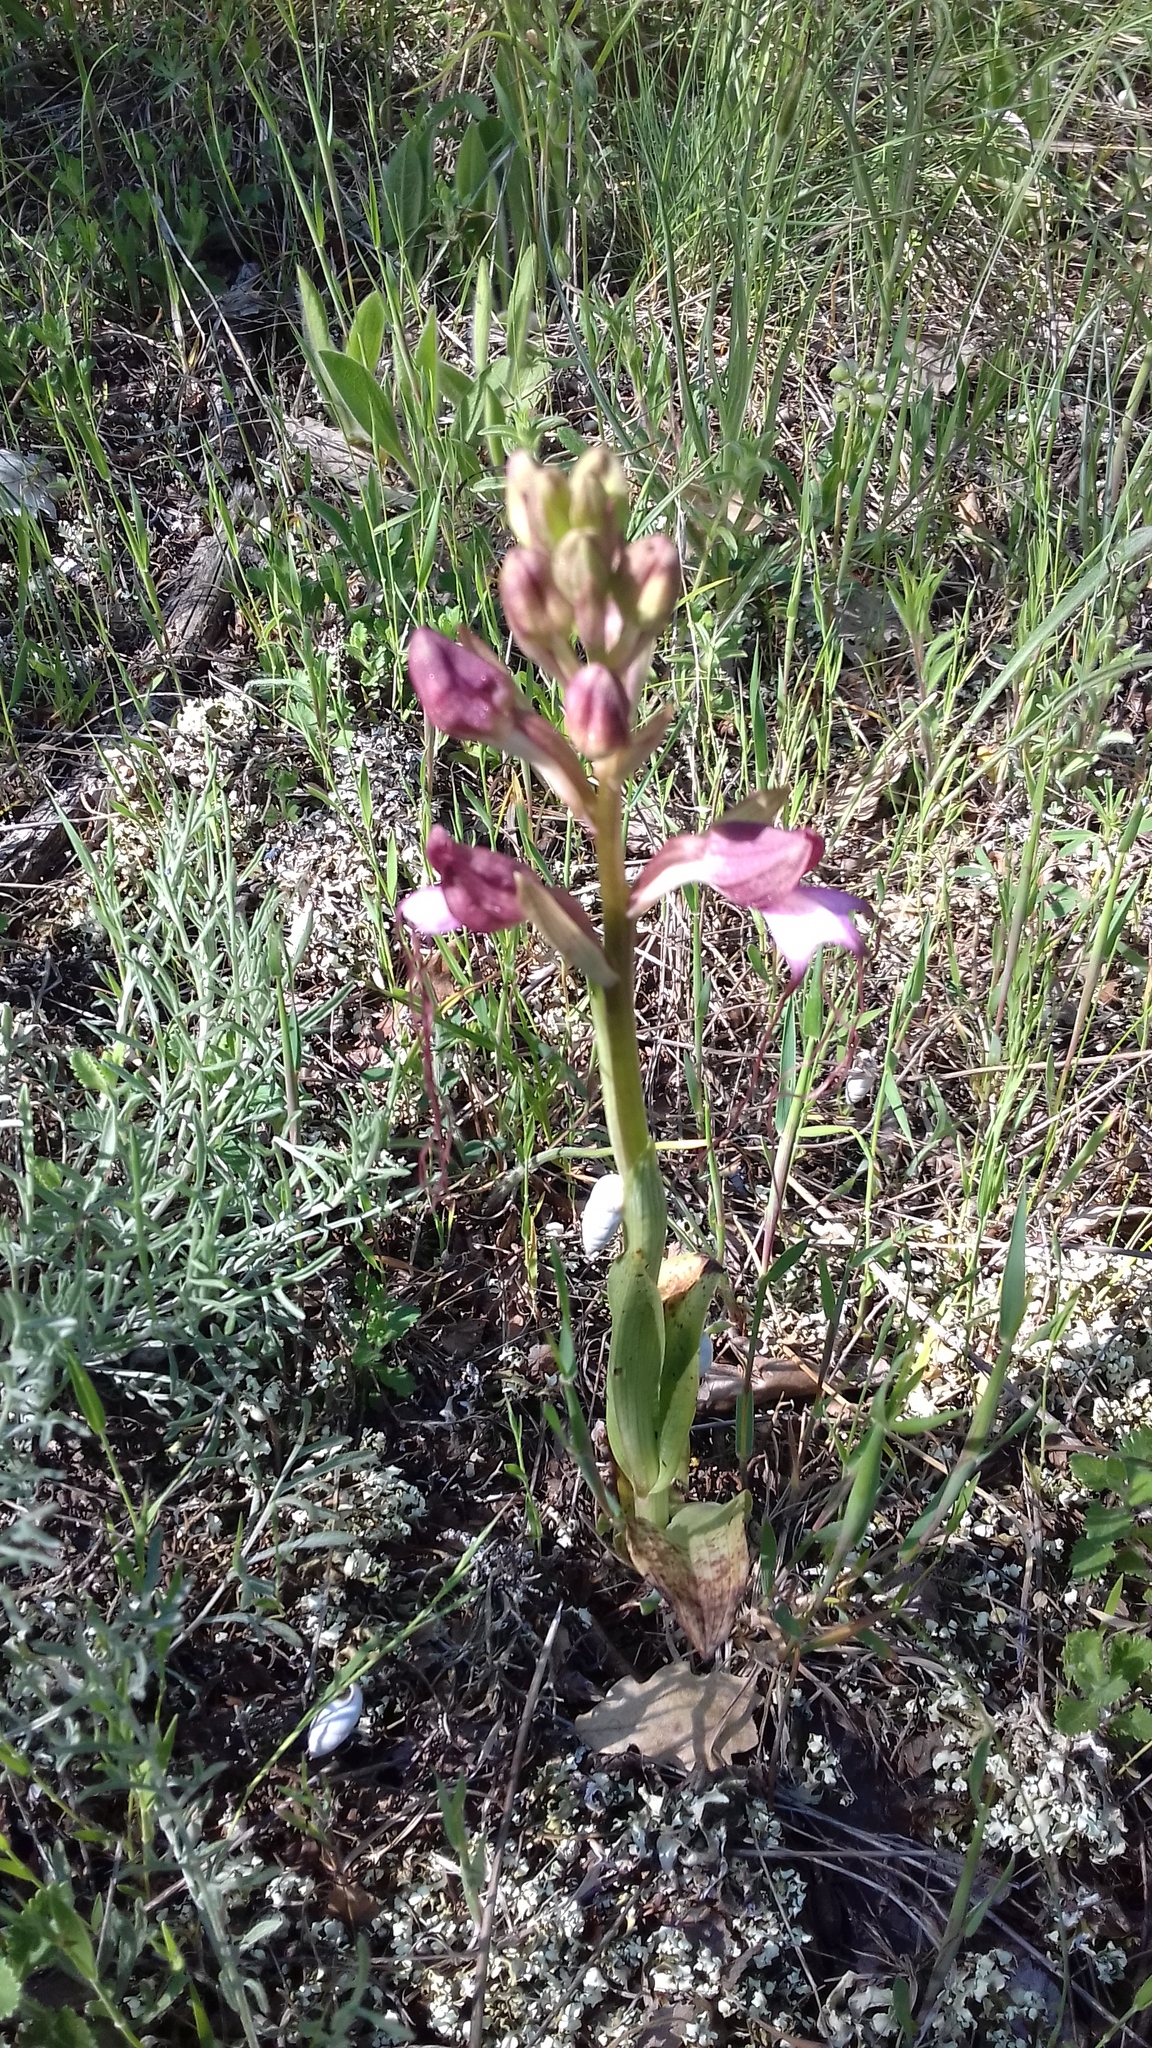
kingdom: Plantae
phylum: Tracheophyta
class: Liliopsida
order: Asparagales
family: Orchidaceae
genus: Himantoglossum
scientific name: Himantoglossum comperianum
